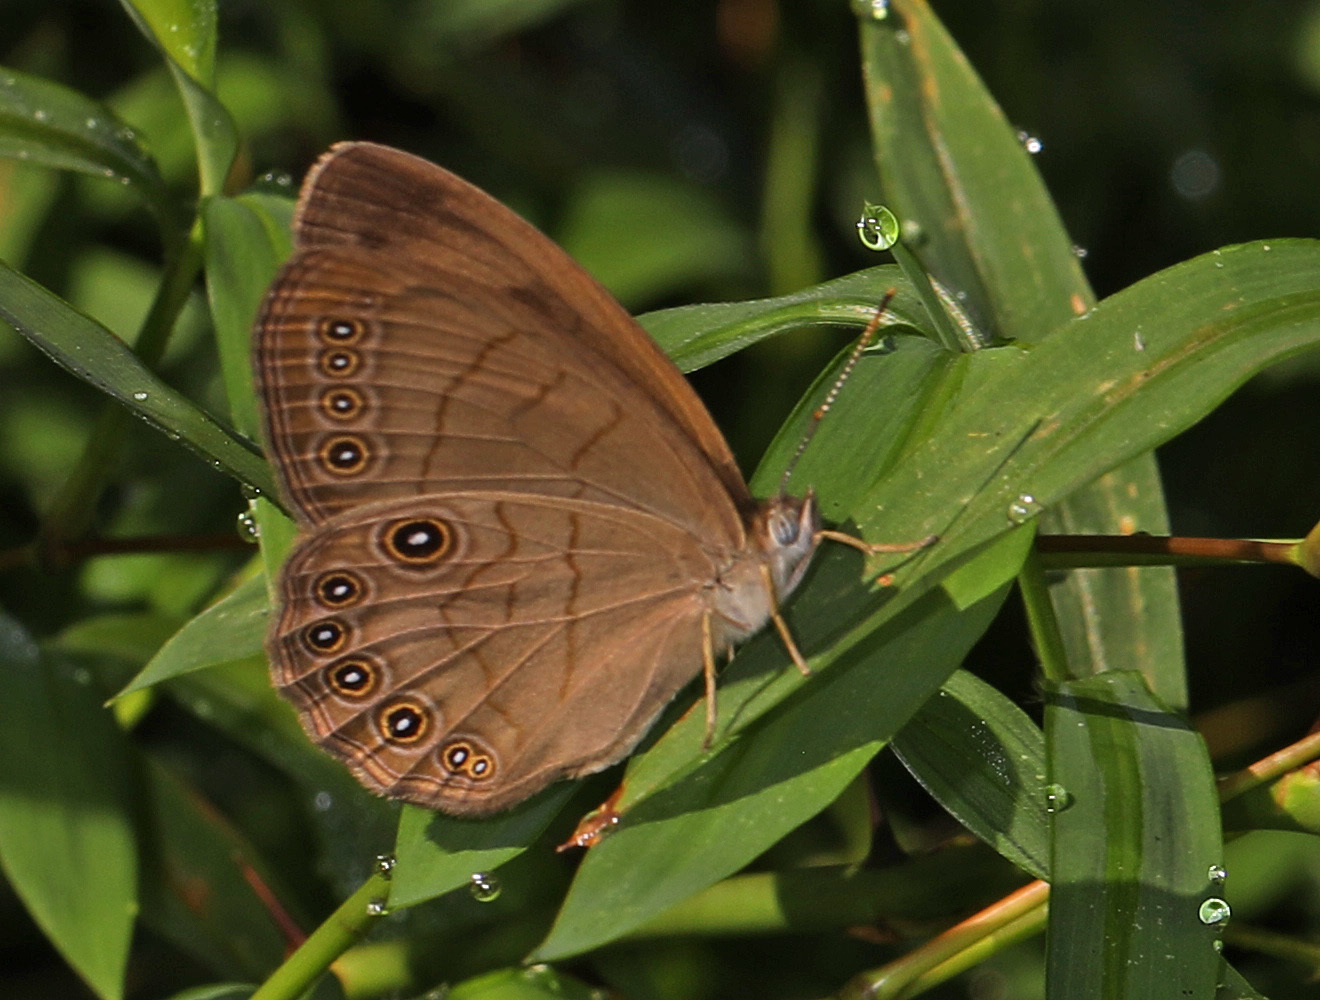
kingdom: Animalia
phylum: Arthropoda
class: Insecta
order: Lepidoptera
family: Nymphalidae
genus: Lethe
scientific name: Lethe eurydice
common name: Eyed brown
